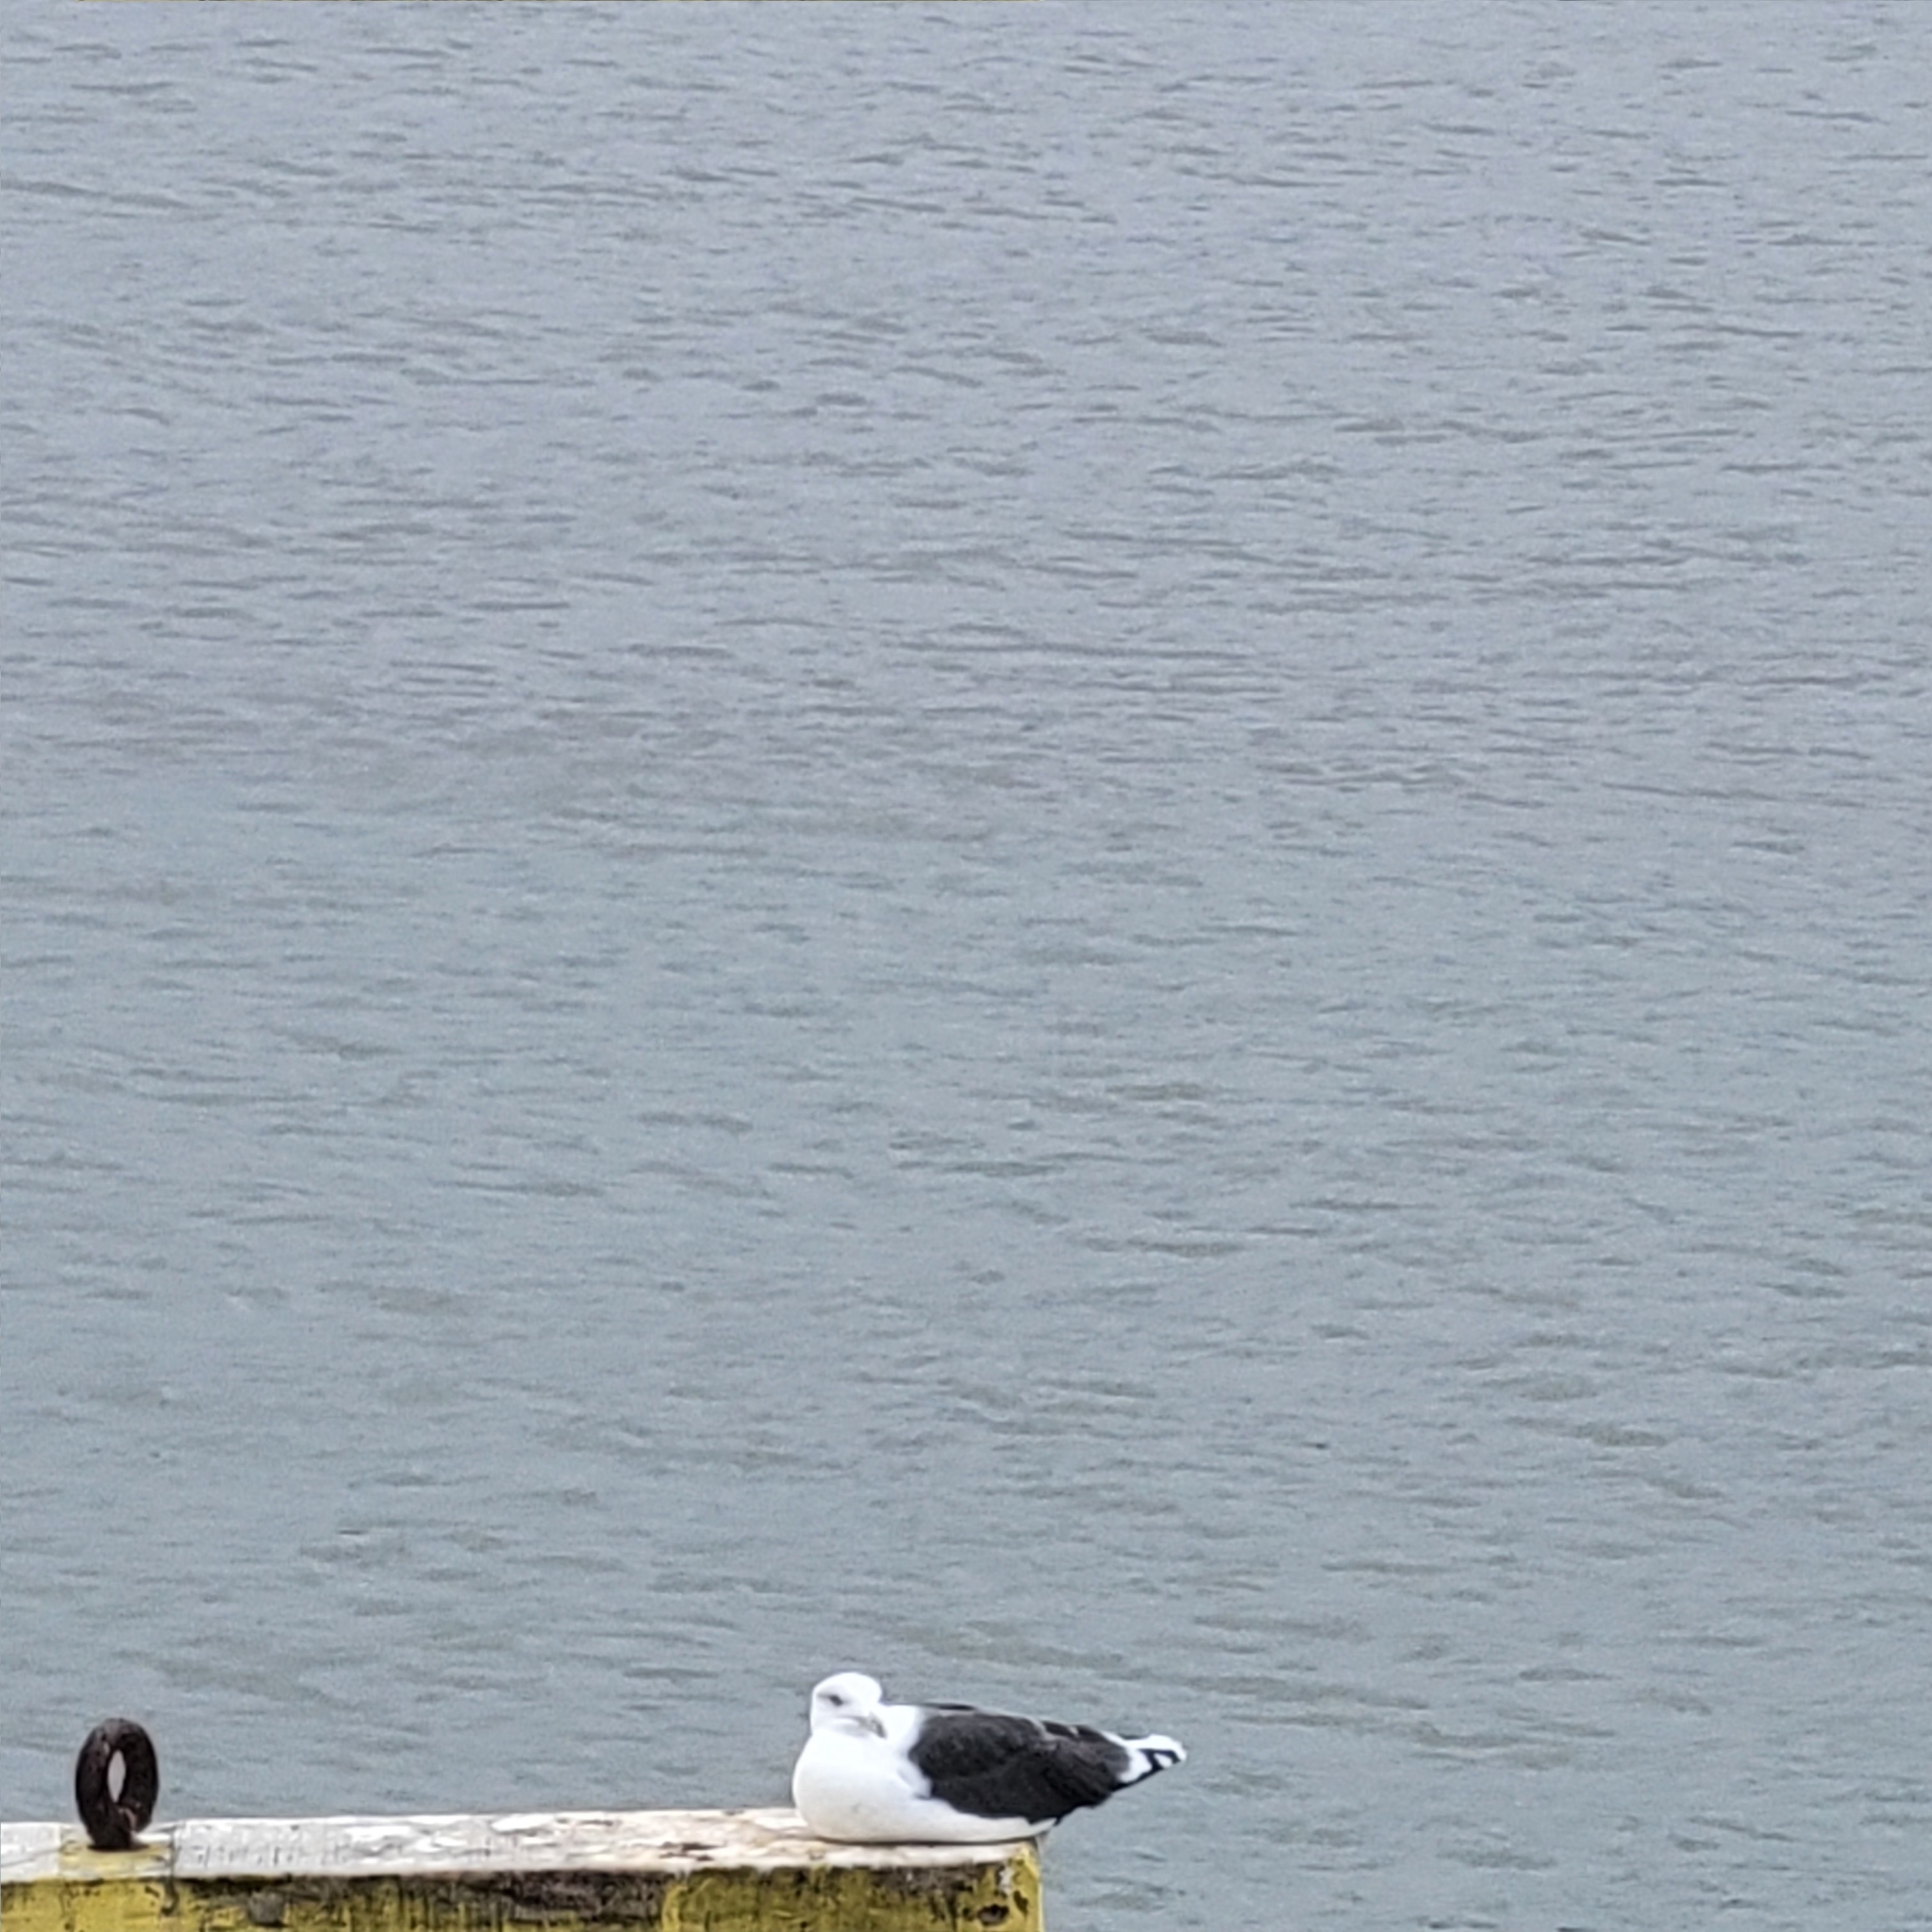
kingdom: Animalia
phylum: Chordata
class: Aves
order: Charadriiformes
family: Laridae
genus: Larus
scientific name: Larus marinus
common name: Great black-backed gull
